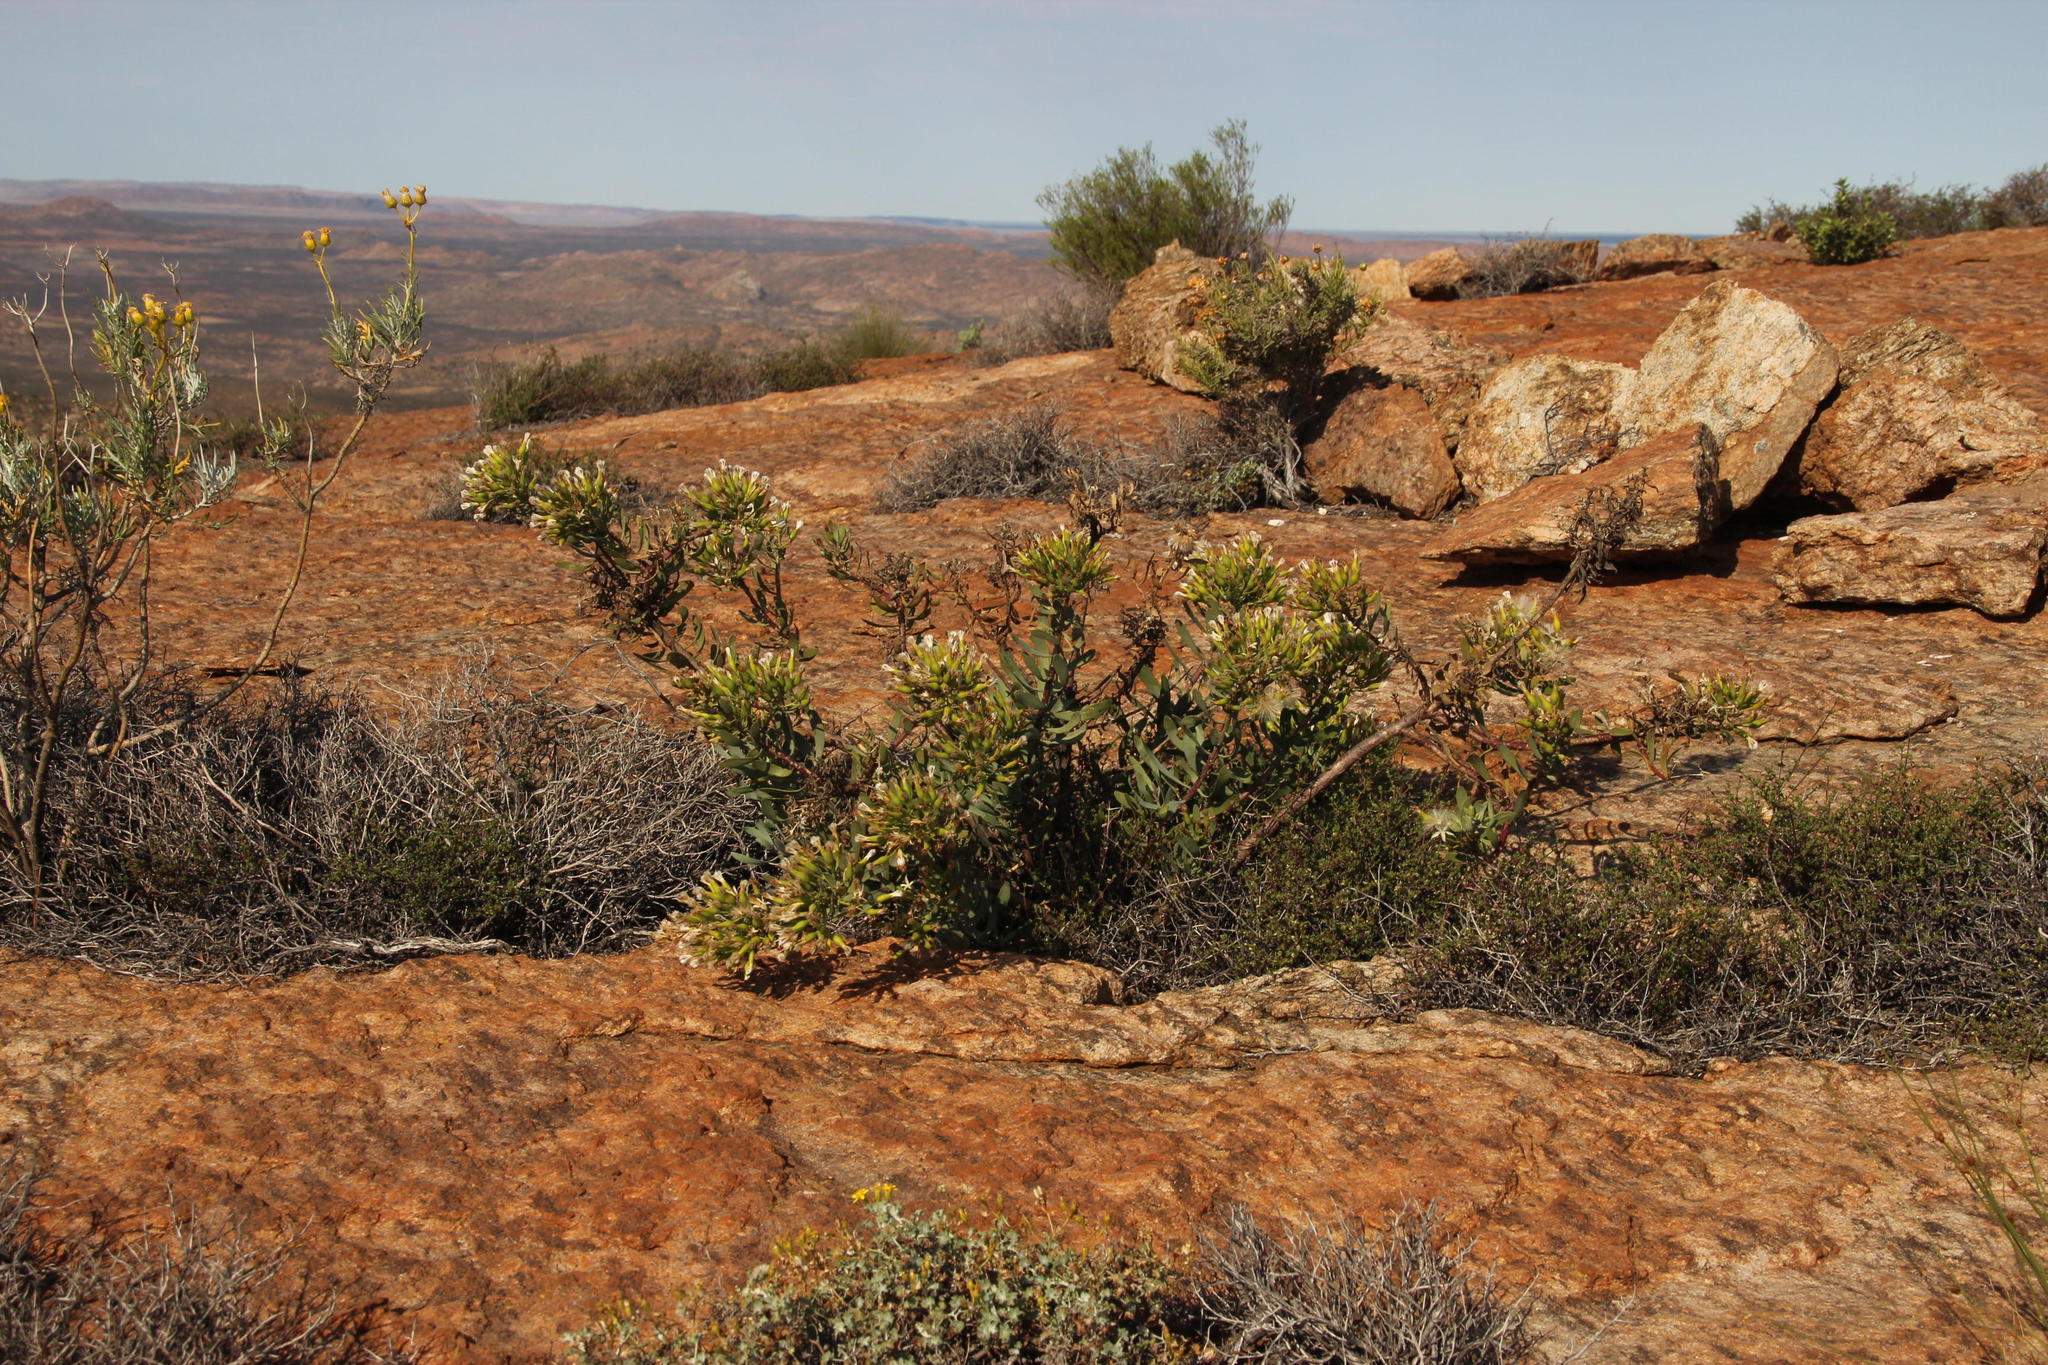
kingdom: Plantae
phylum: Tracheophyta
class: Magnoliopsida
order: Asterales
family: Asteraceae
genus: Lopholaena
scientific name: Lopholaena cneorifolia
